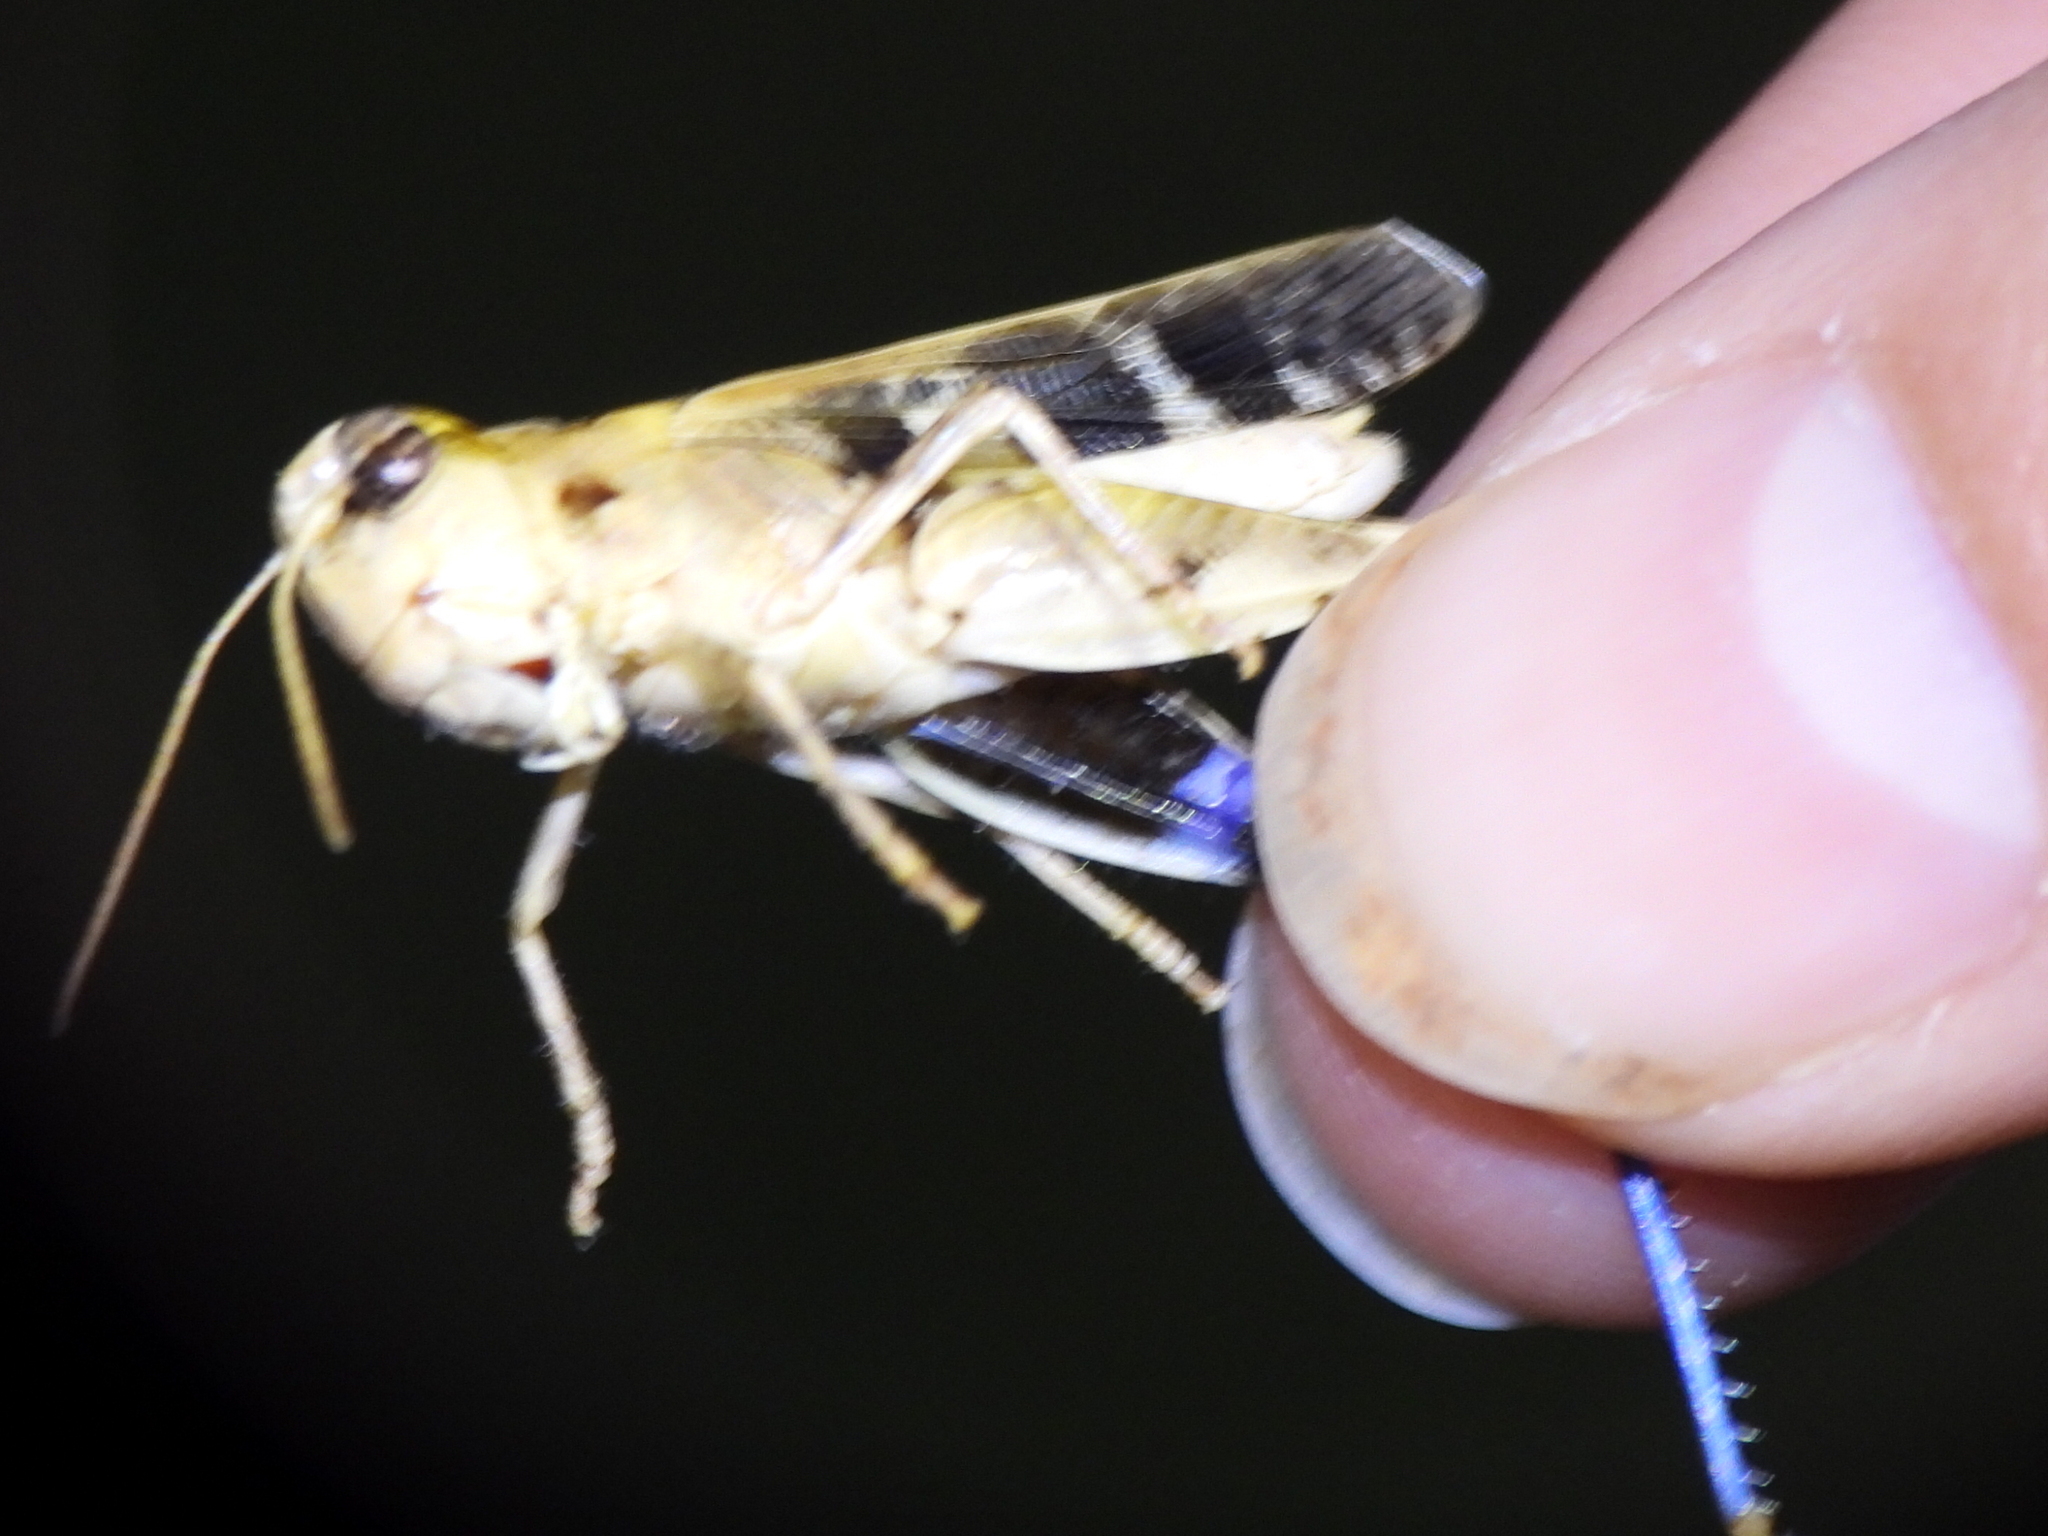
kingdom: Animalia
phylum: Arthropoda
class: Insecta
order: Orthoptera
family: Acrididae
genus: Encoptolophus
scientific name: Encoptolophus costalis
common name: Dusky grasshopper
